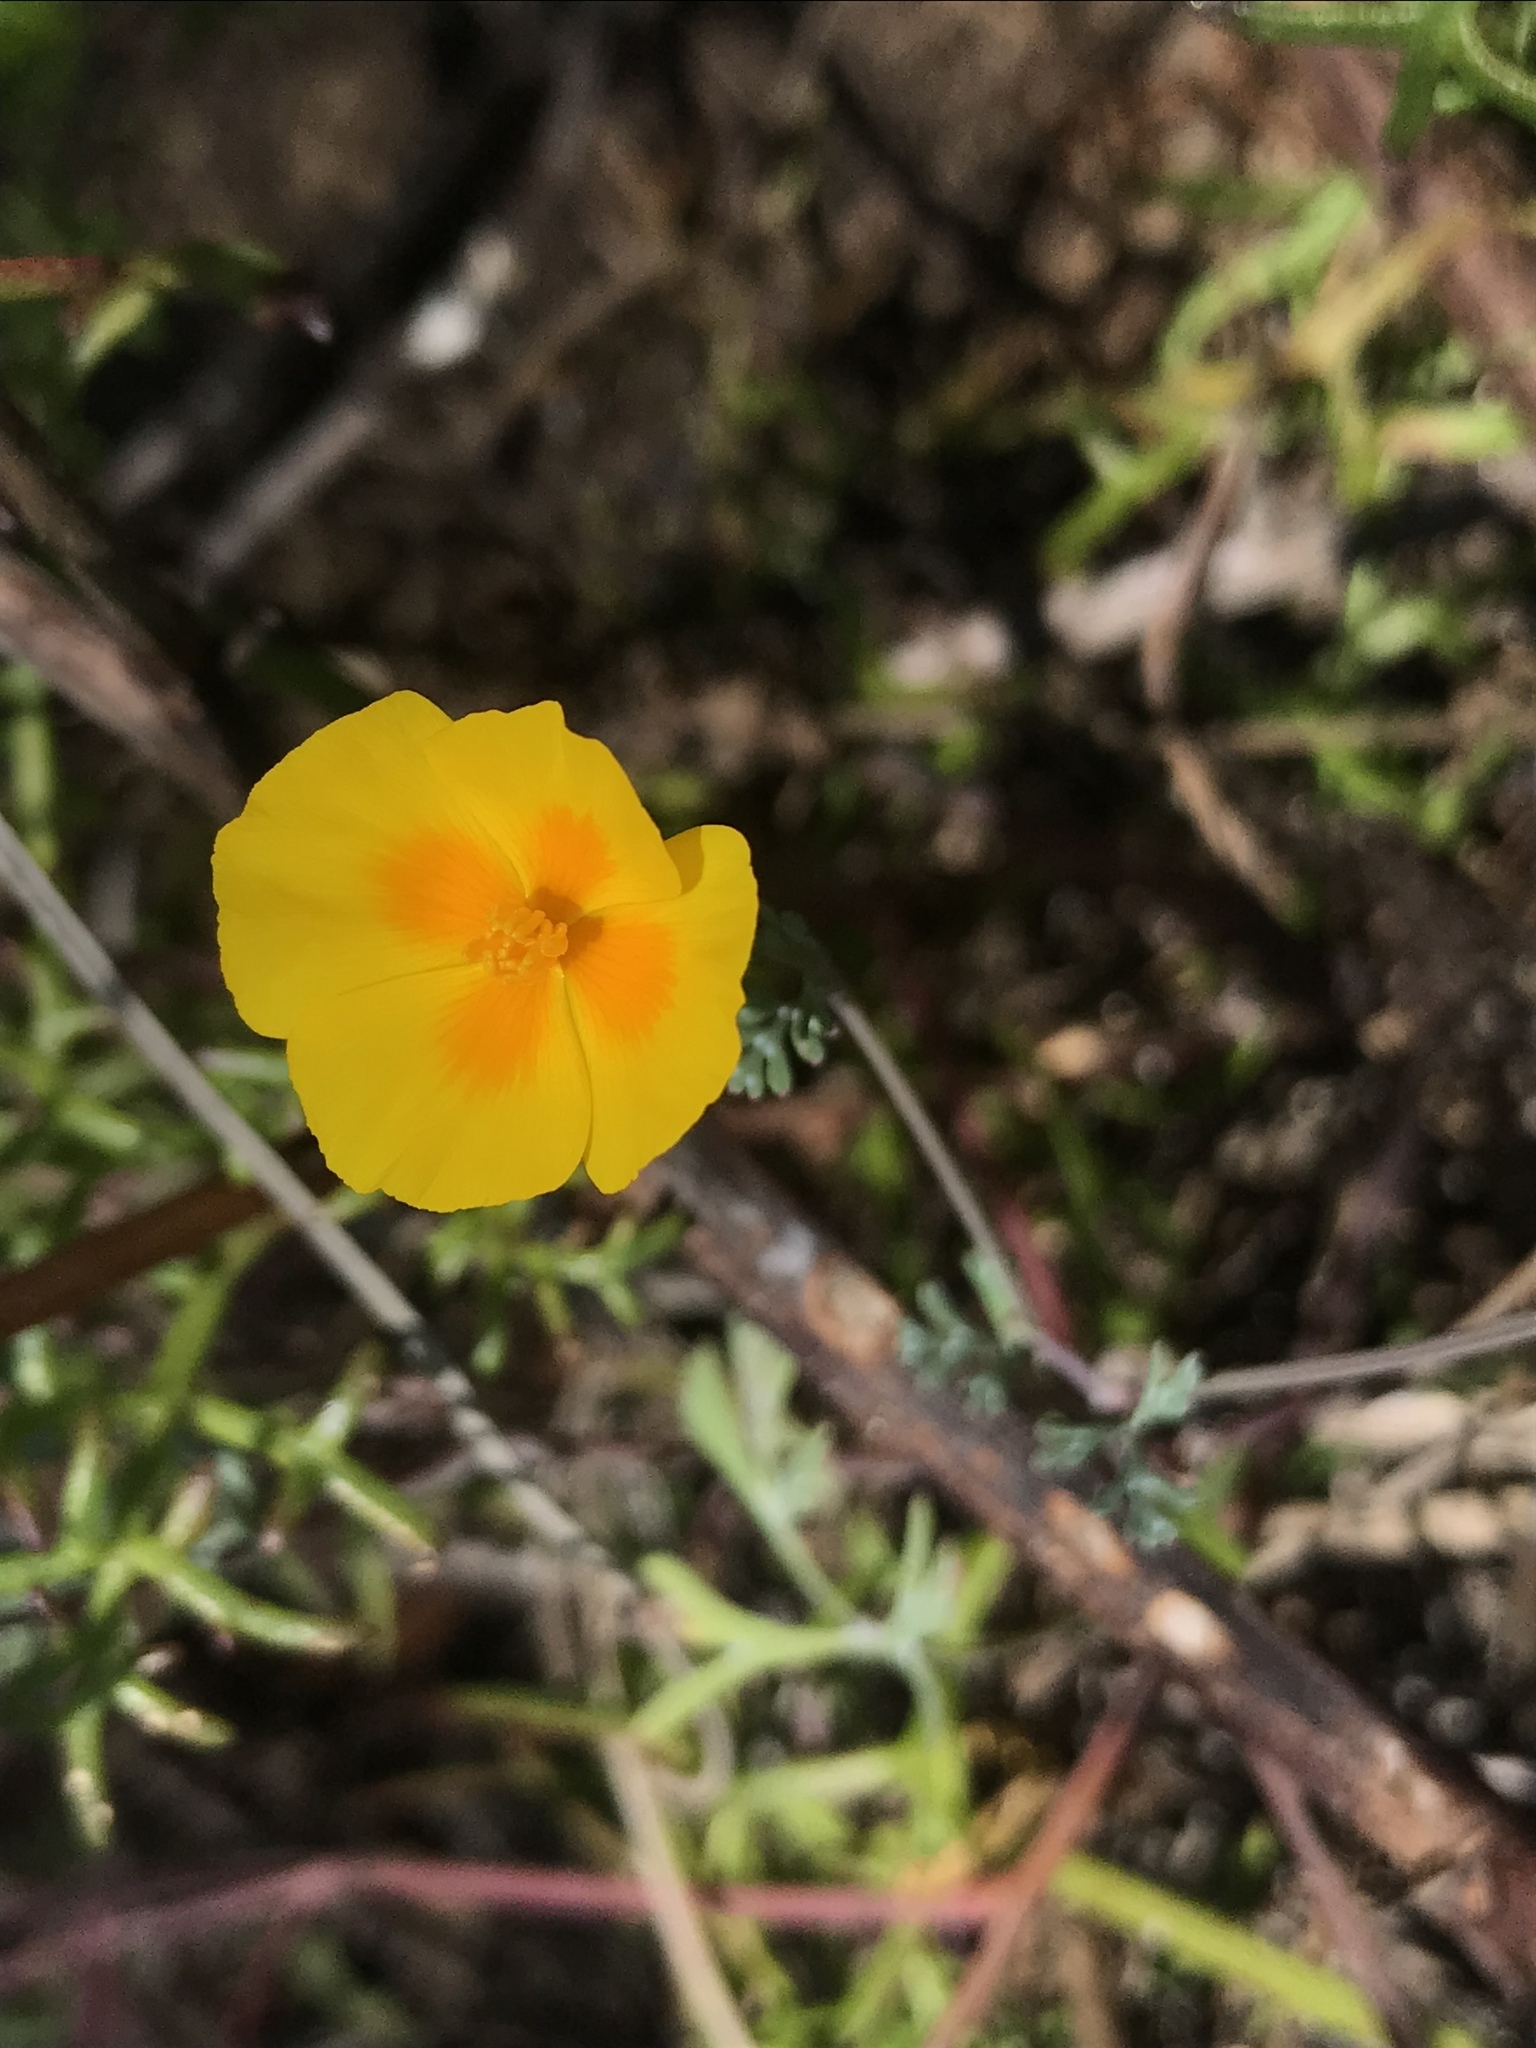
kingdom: Plantae
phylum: Tracheophyta
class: Magnoliopsida
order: Ranunculales
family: Papaveraceae
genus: Eschscholzia
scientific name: Eschscholzia californica
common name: California poppy
